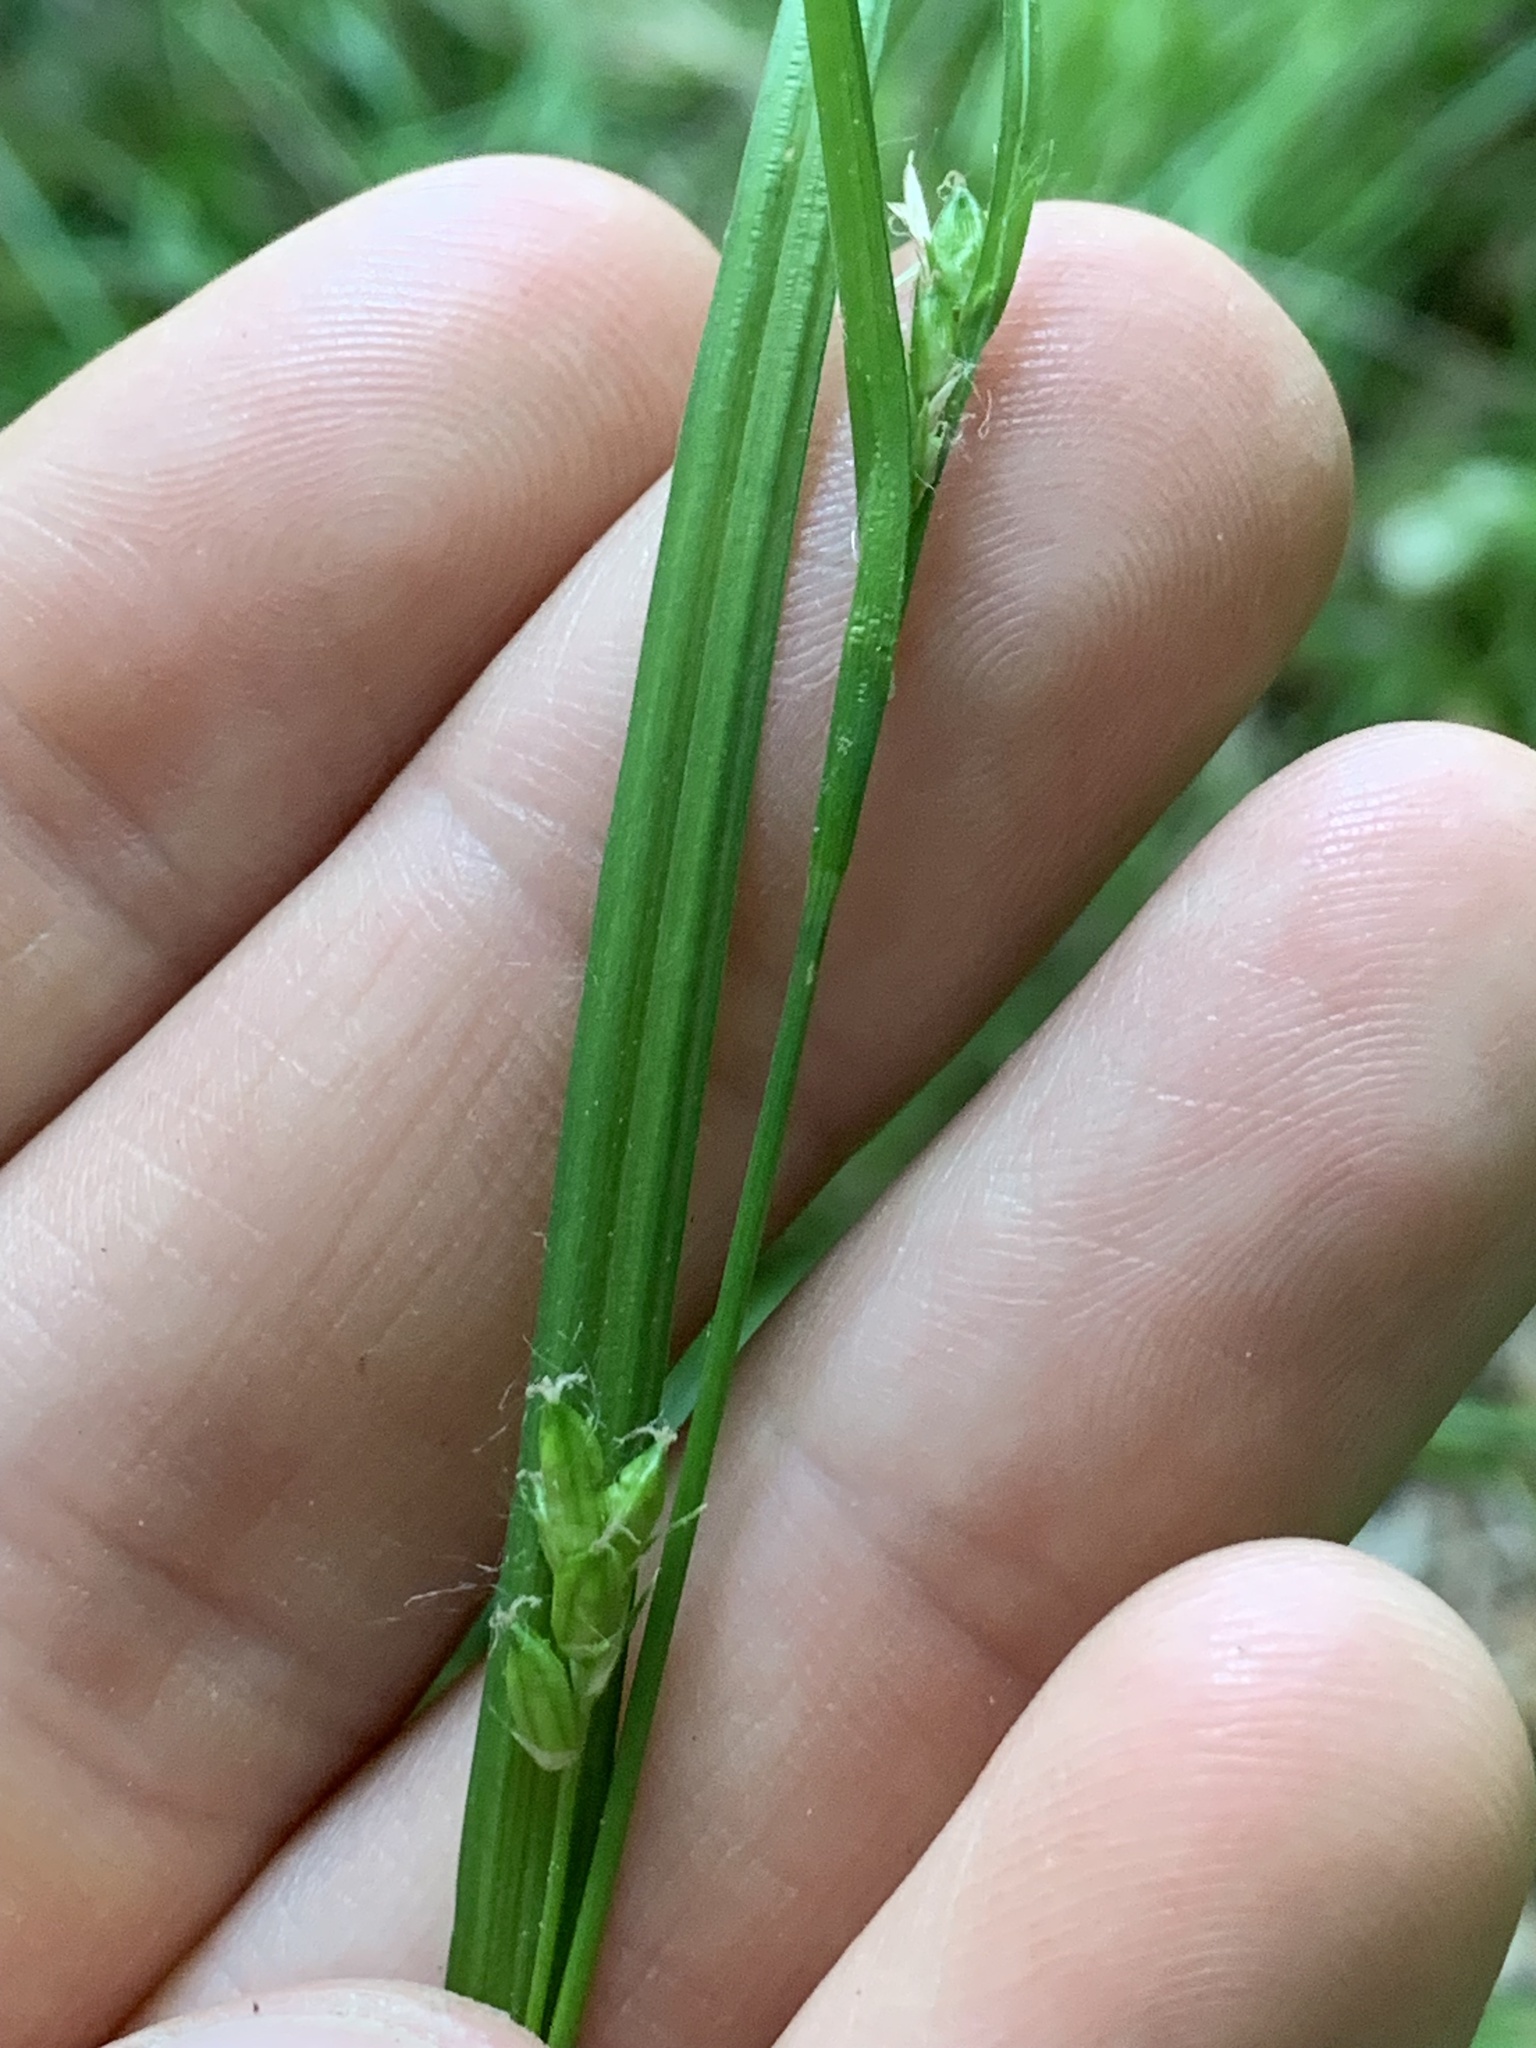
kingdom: Plantae
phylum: Tracheophyta
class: Liliopsida
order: Poales
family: Cyperaceae
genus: Carex
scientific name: Carex amphibola
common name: Amphibious sedge
